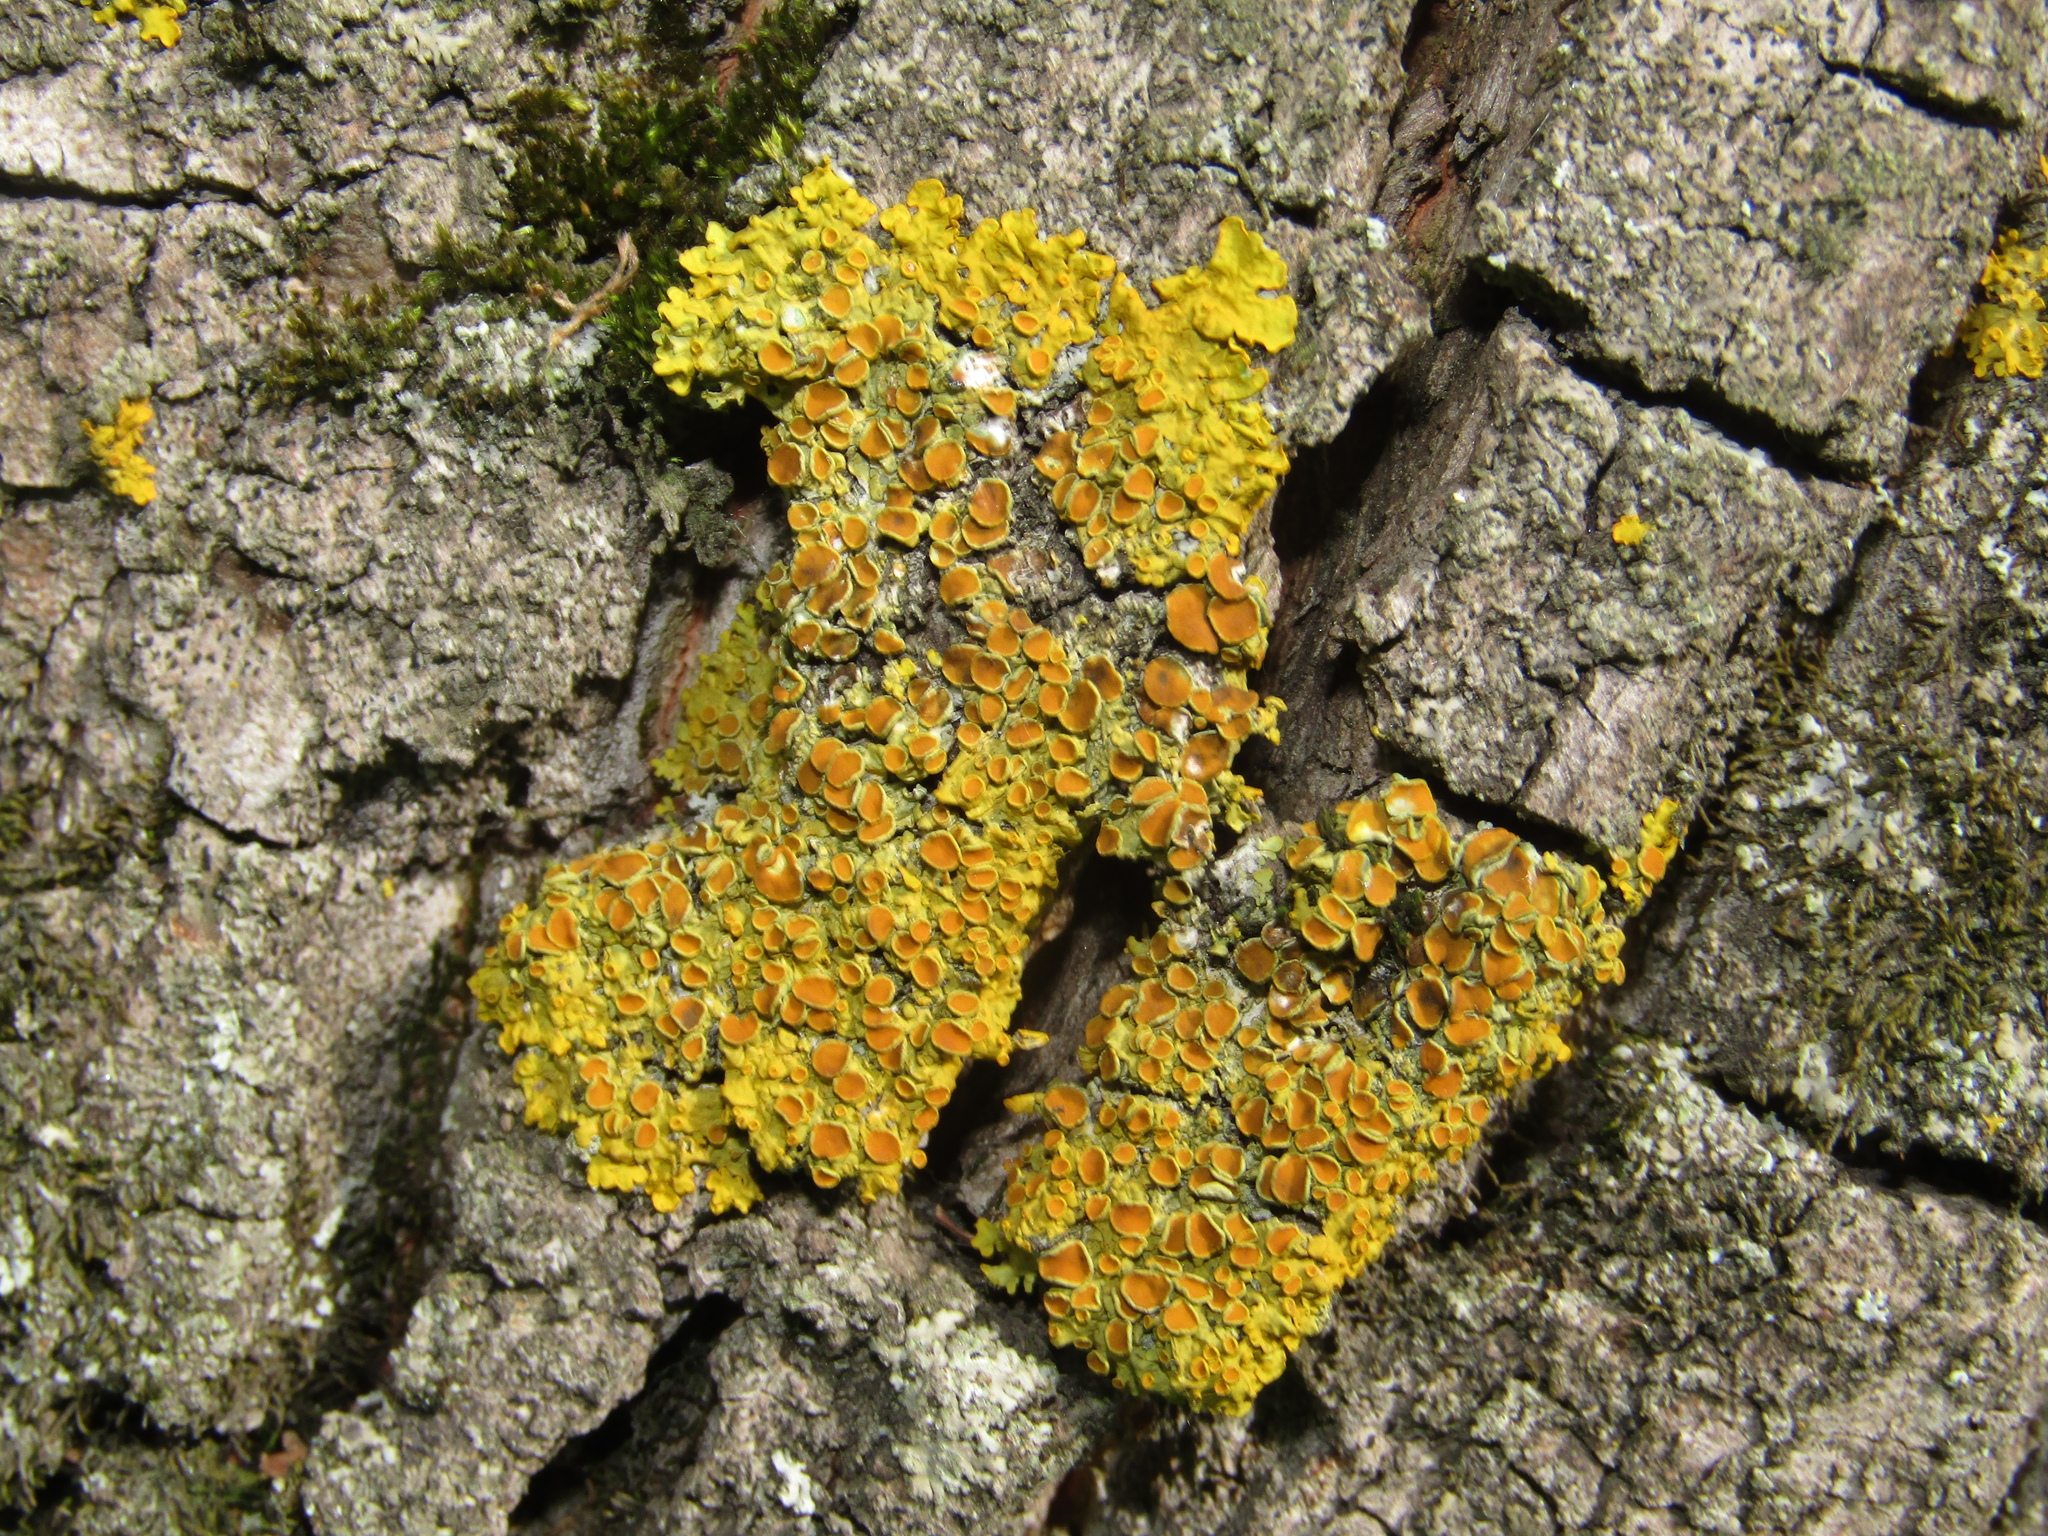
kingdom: Fungi
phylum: Ascomycota
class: Lecanoromycetes
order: Teloschistales
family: Teloschistaceae
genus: Xanthoria
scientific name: Xanthoria parietina
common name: Common orange lichen
